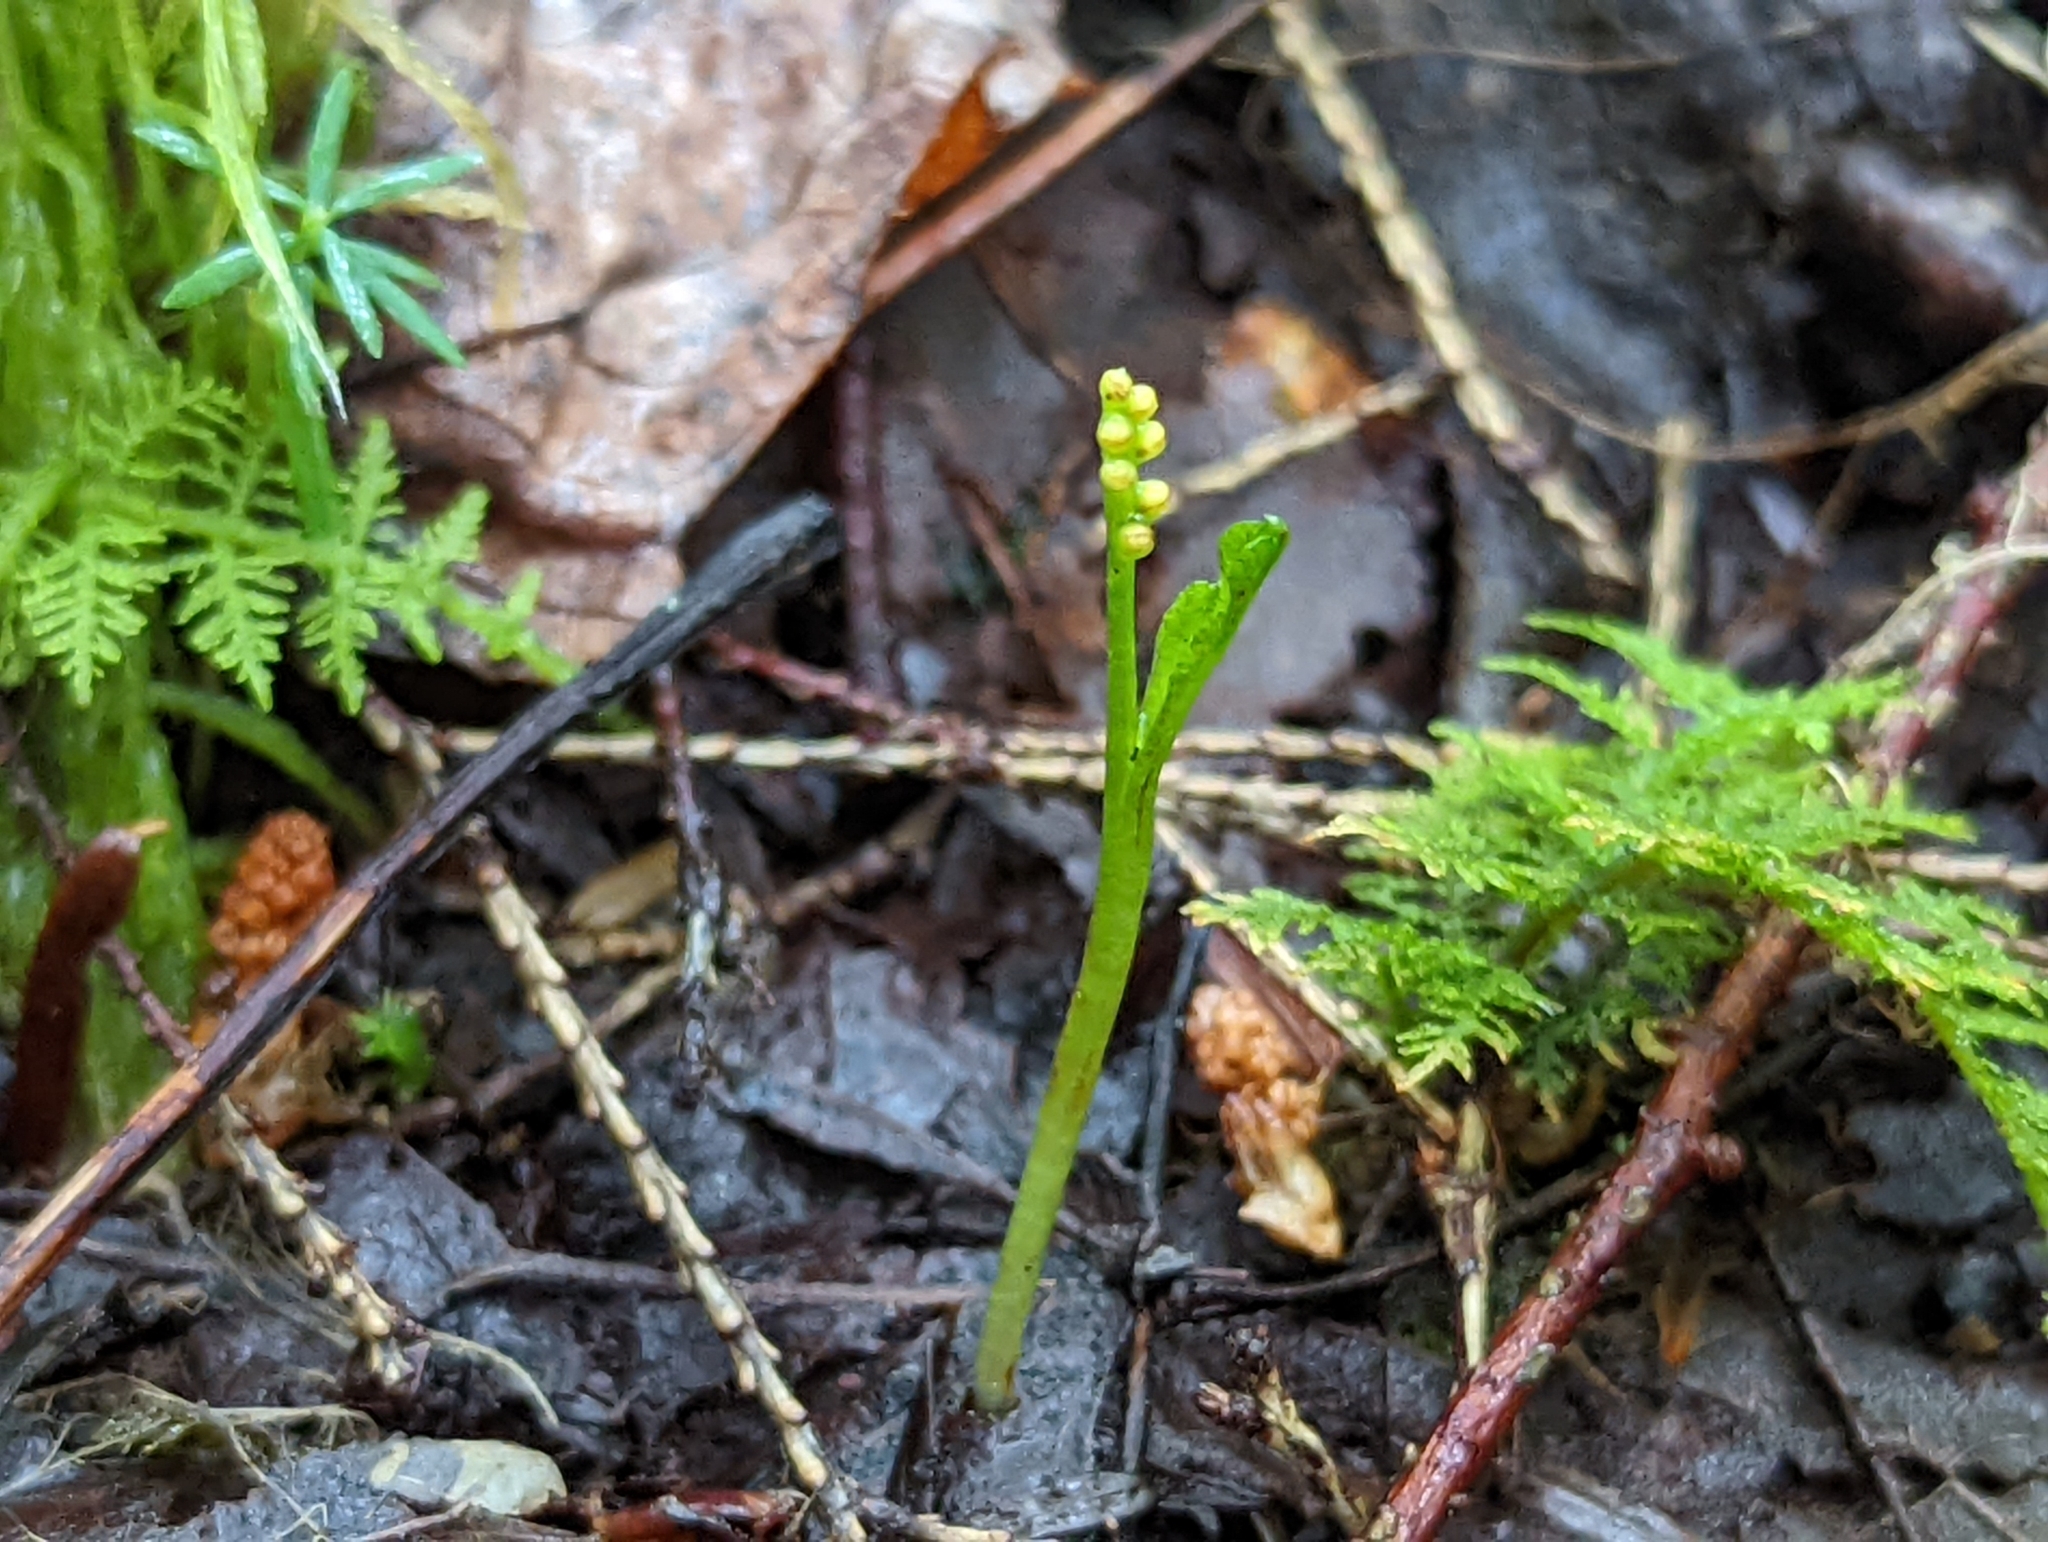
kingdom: Plantae
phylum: Tracheophyta
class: Polypodiopsida
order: Ophioglossales
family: Ophioglossaceae
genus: Botrychium
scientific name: Botrychium tenebrosum
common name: Shade moonwort
